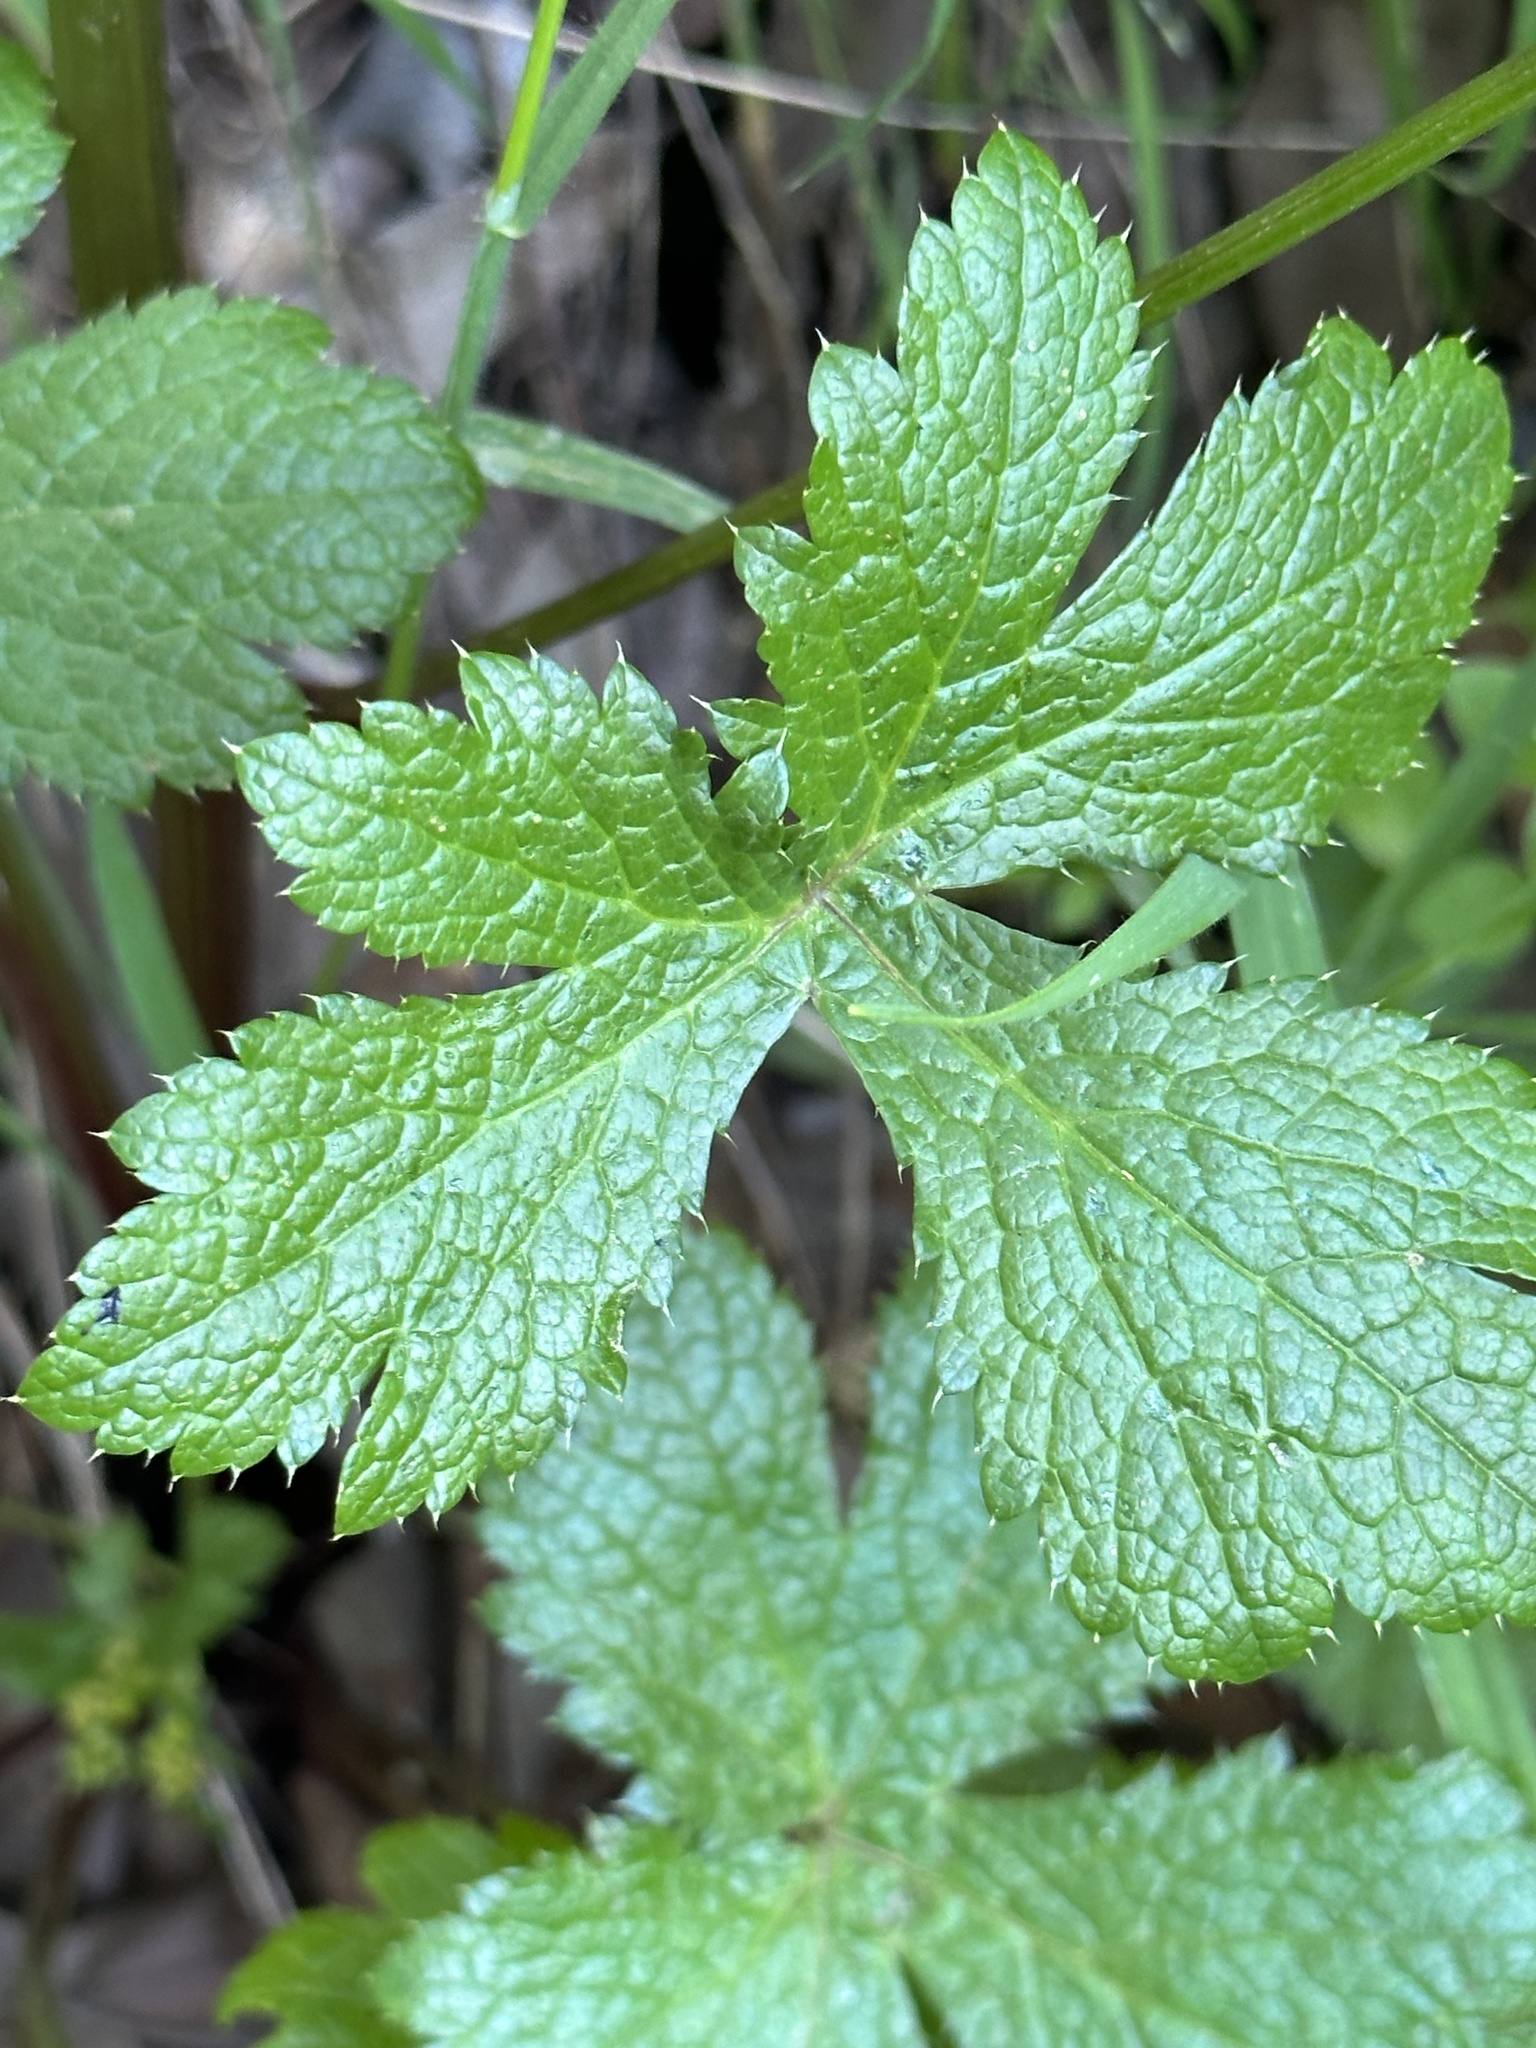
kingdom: Plantae
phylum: Tracheophyta
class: Magnoliopsida
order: Apiales
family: Apiaceae
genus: Sanicula
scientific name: Sanicula crassicaulis
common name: Western snakeroot
